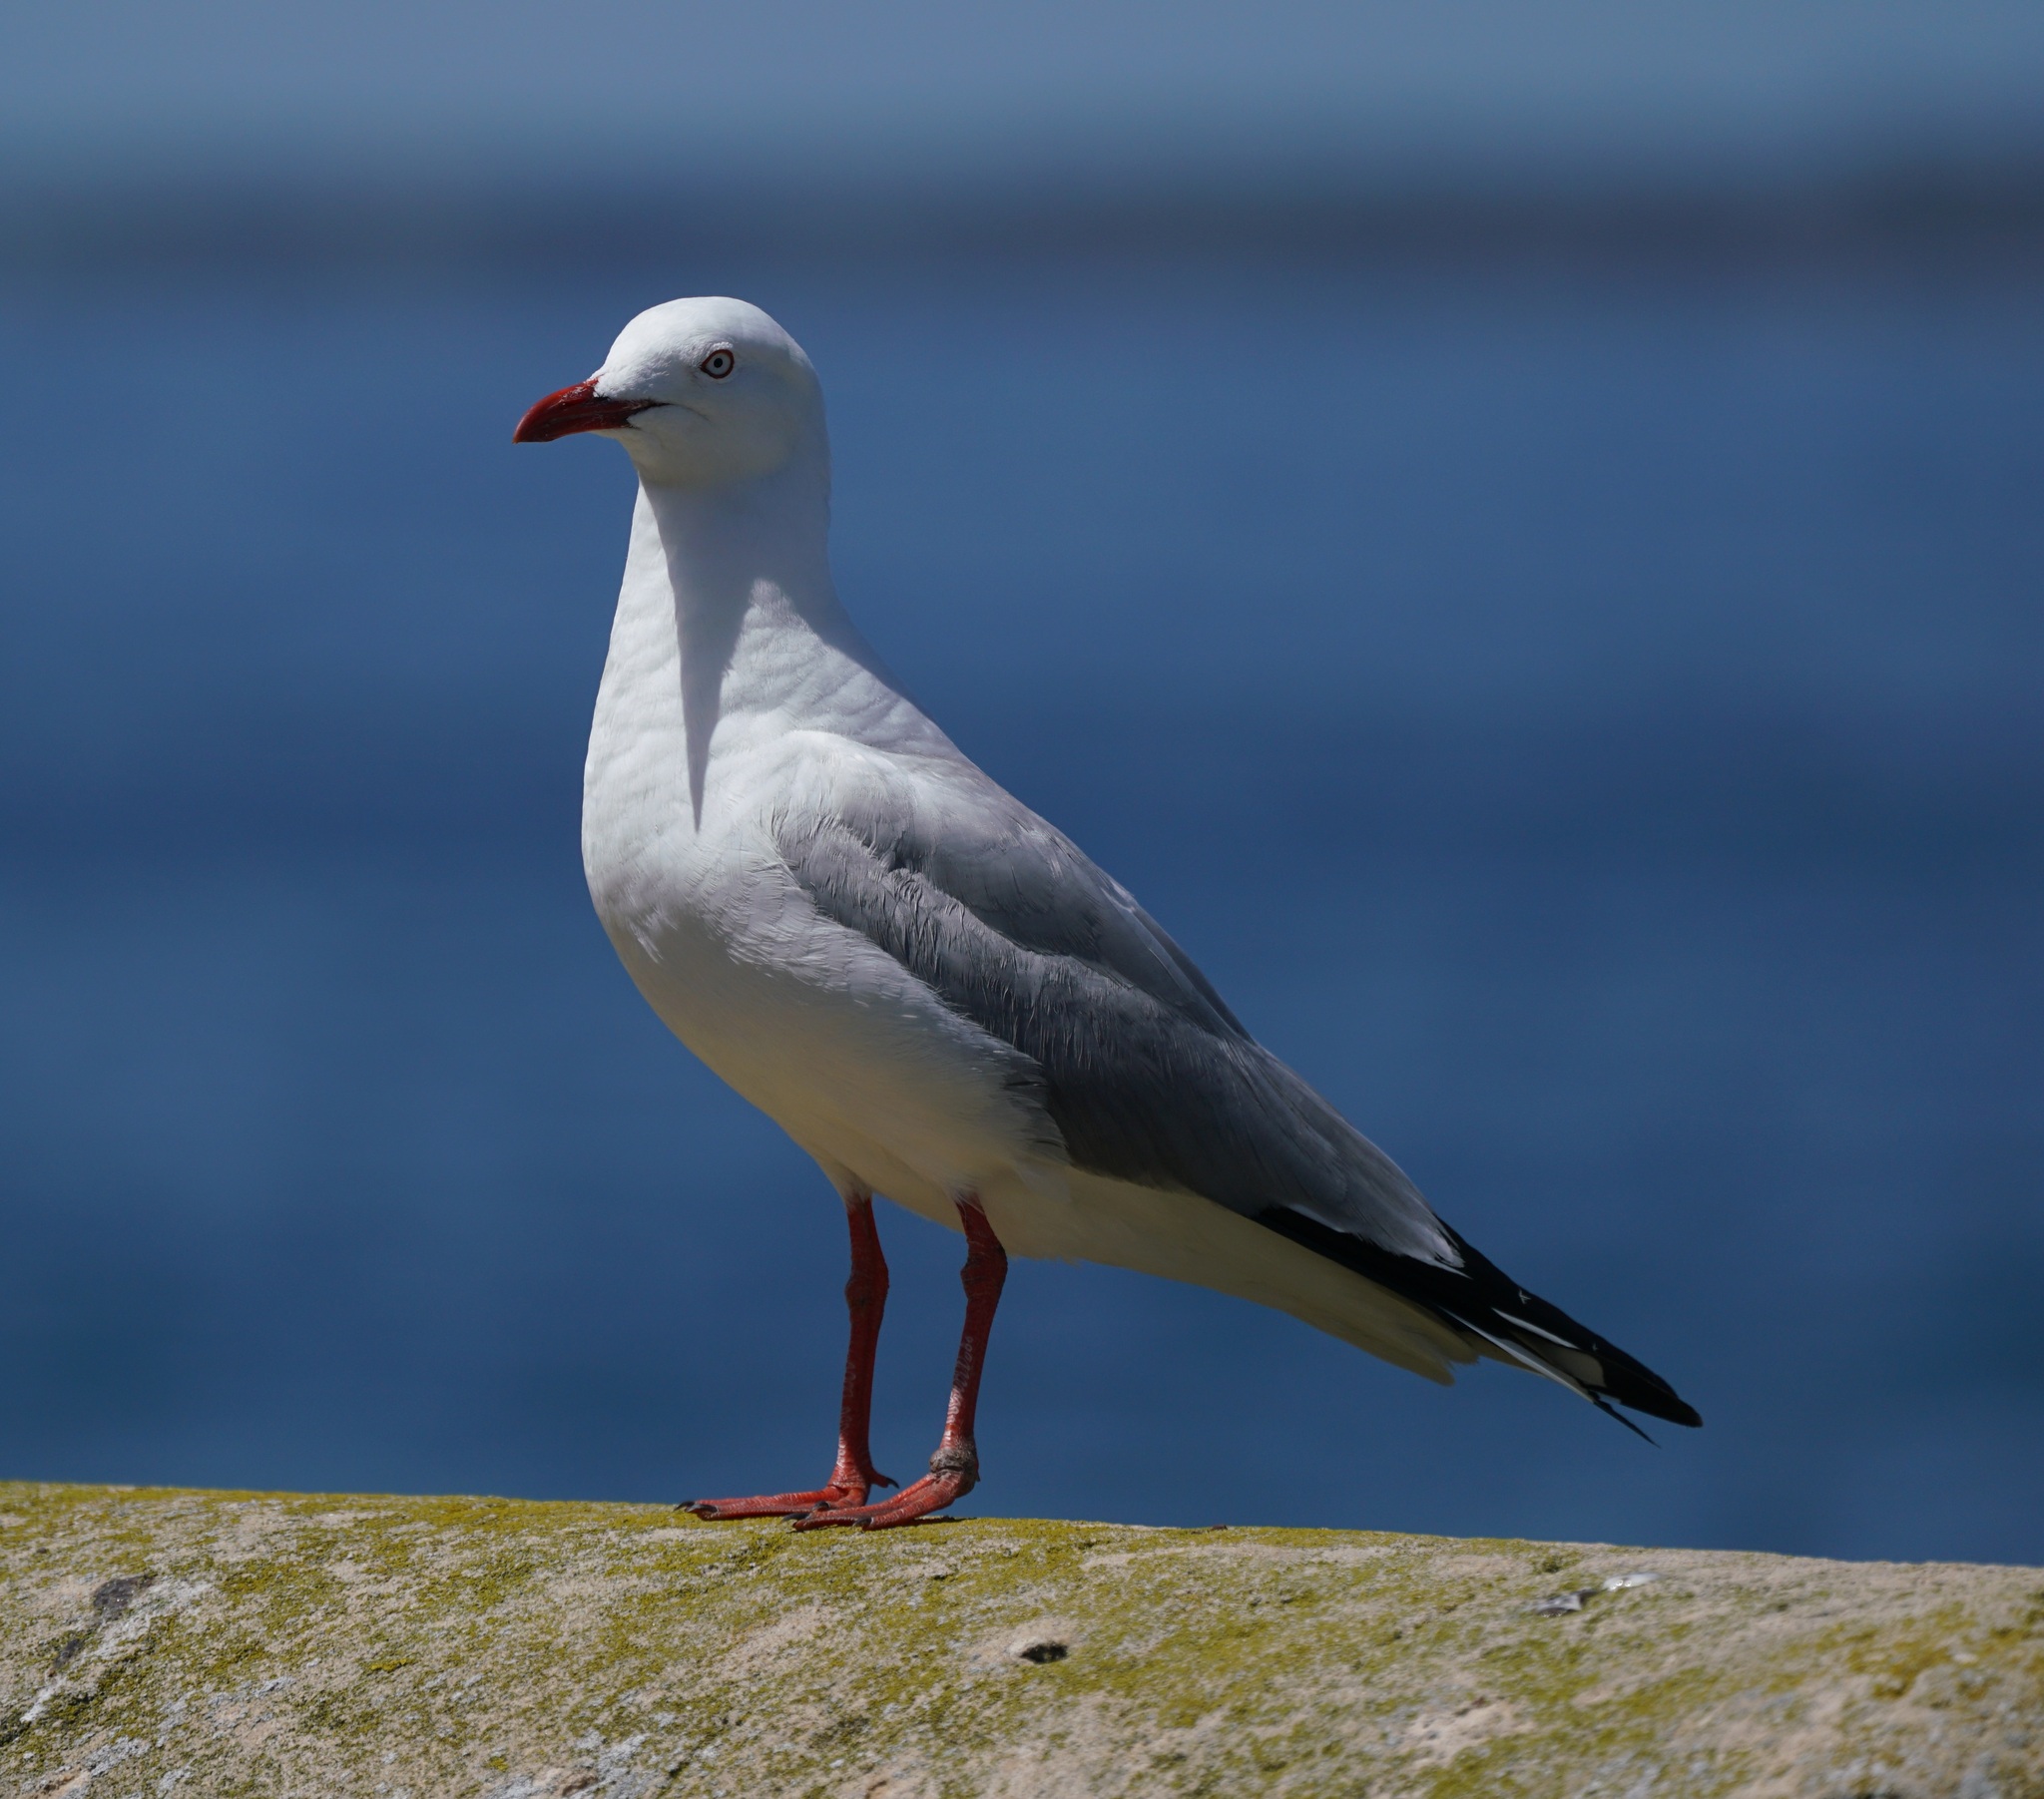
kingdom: Animalia
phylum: Chordata
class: Aves
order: Charadriiformes
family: Laridae
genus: Chroicocephalus
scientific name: Chroicocephalus novaehollandiae
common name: Silver gull
